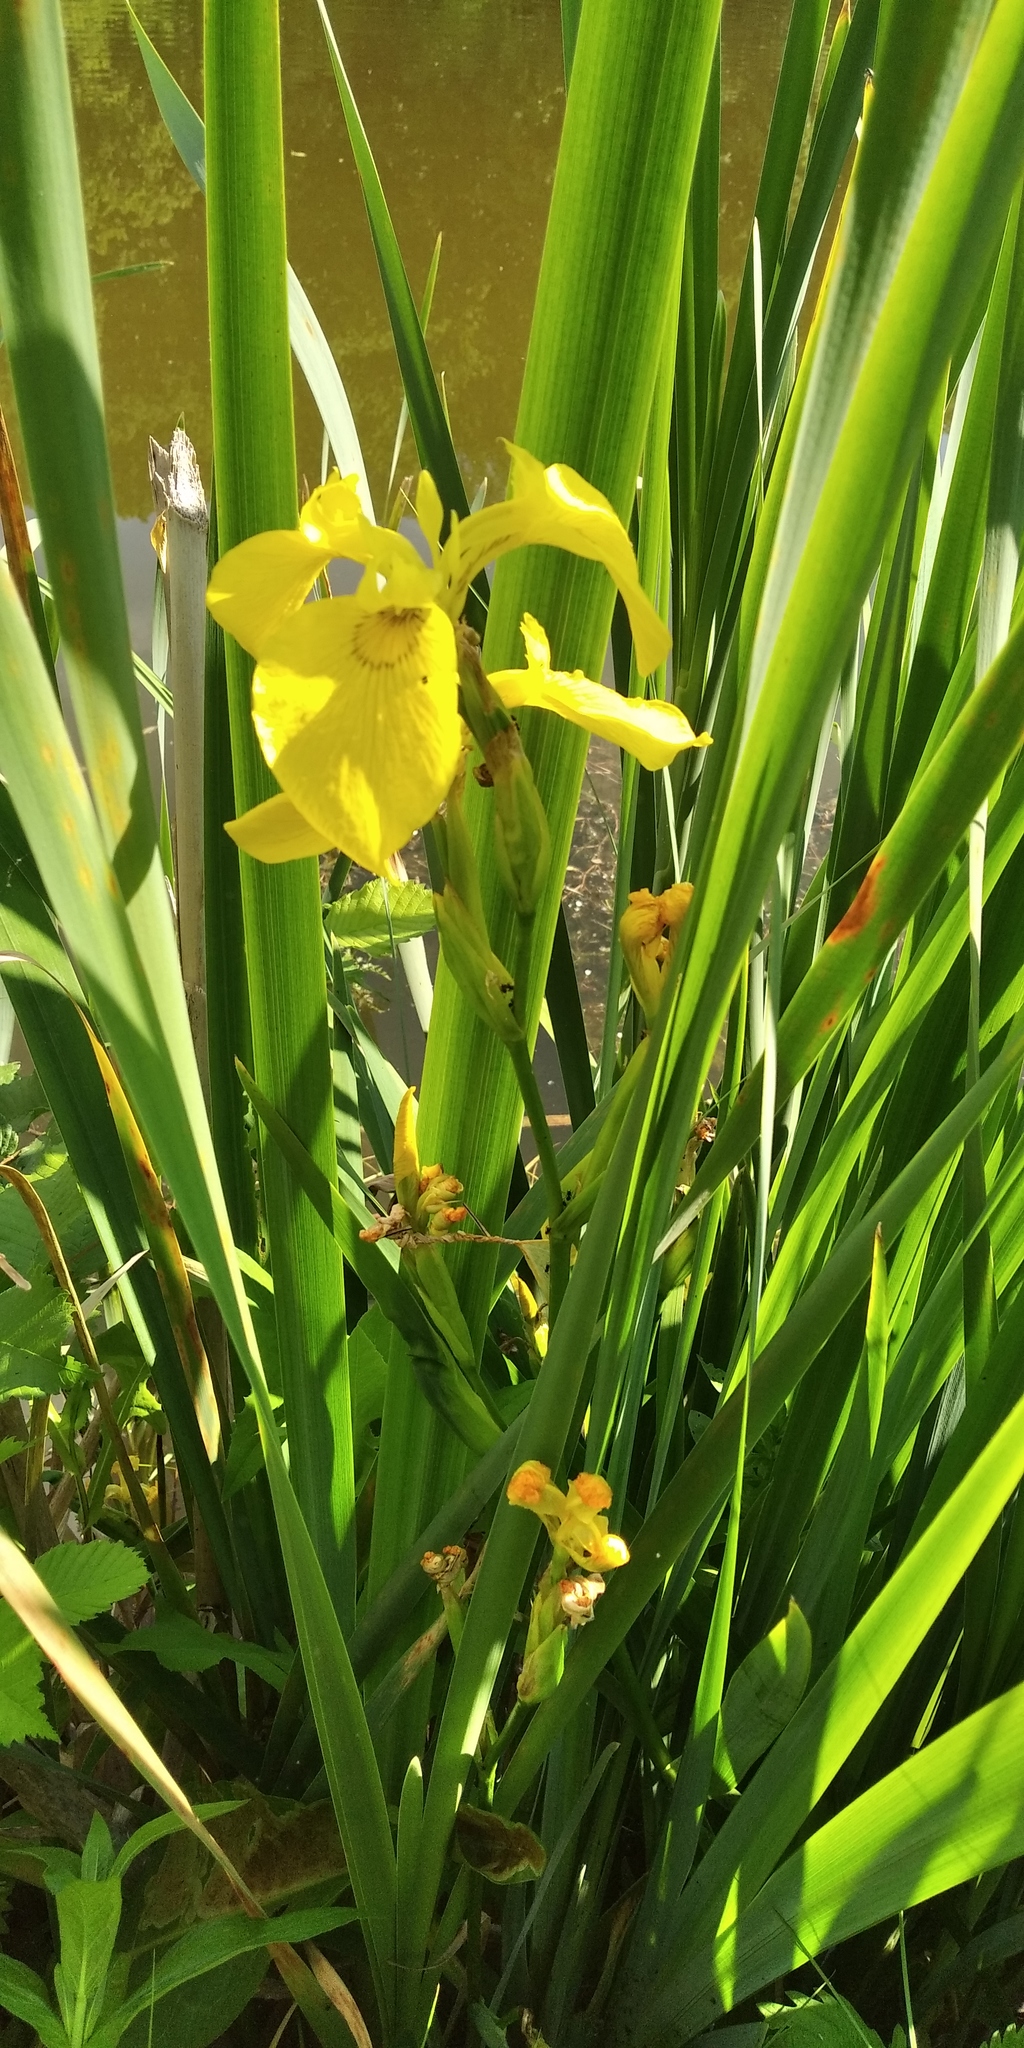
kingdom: Plantae
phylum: Tracheophyta
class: Liliopsida
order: Asparagales
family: Iridaceae
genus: Iris
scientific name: Iris pseudacorus
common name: Yellow flag
